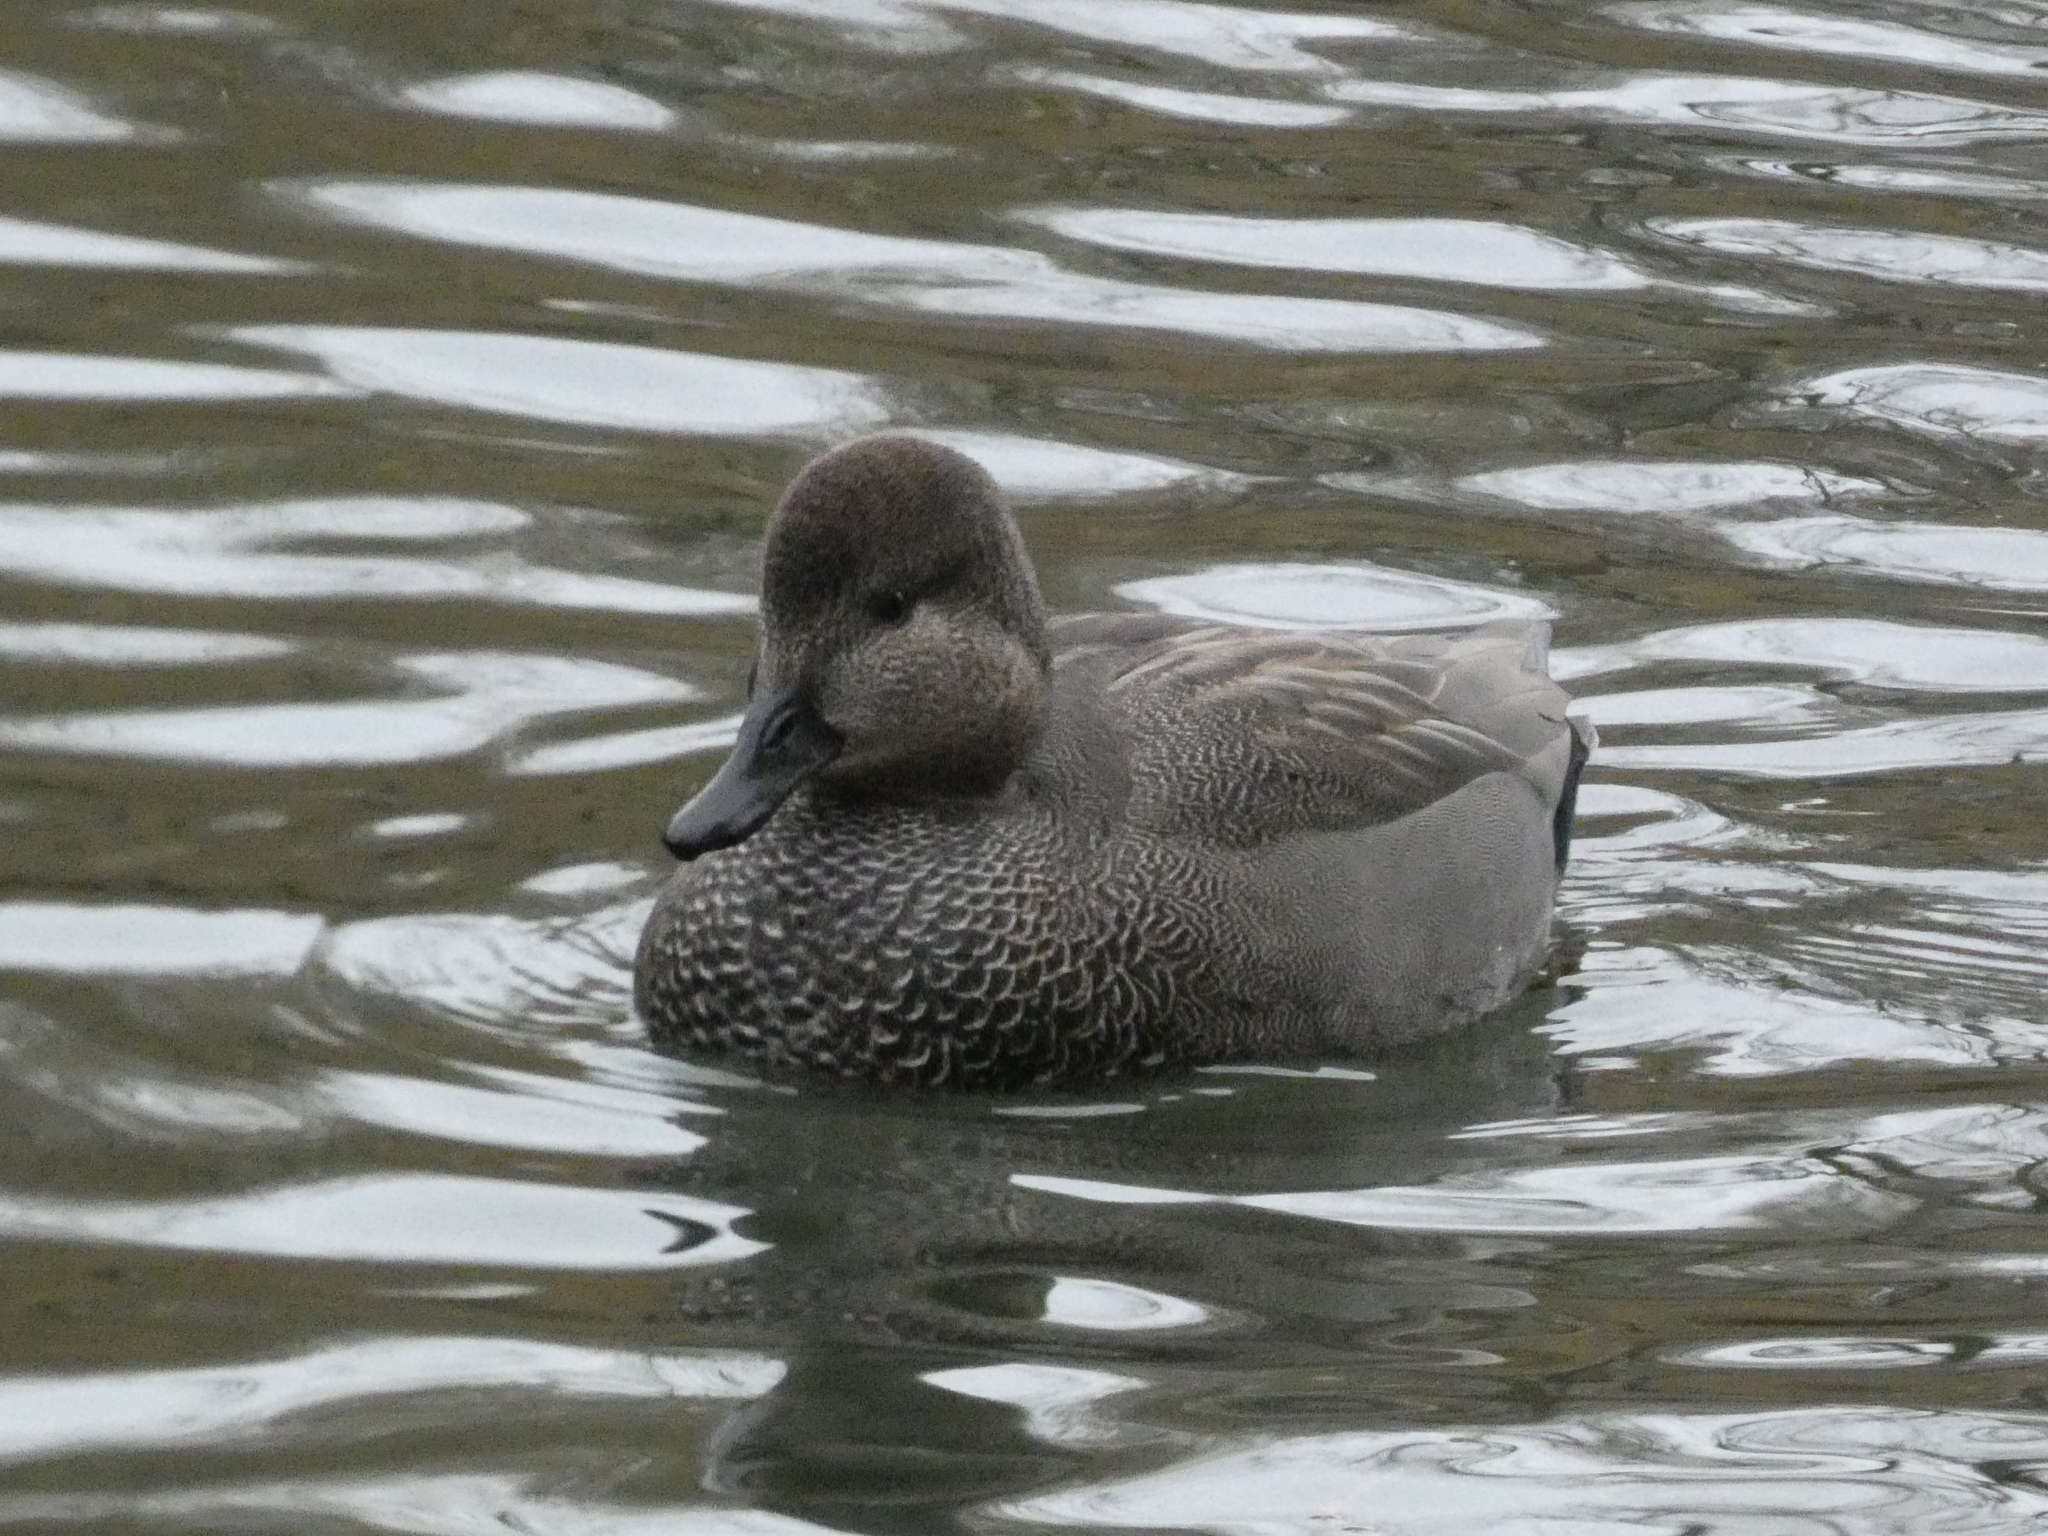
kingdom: Animalia
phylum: Chordata
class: Aves
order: Anseriformes
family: Anatidae
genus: Mareca
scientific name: Mareca strepera
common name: Gadwall
